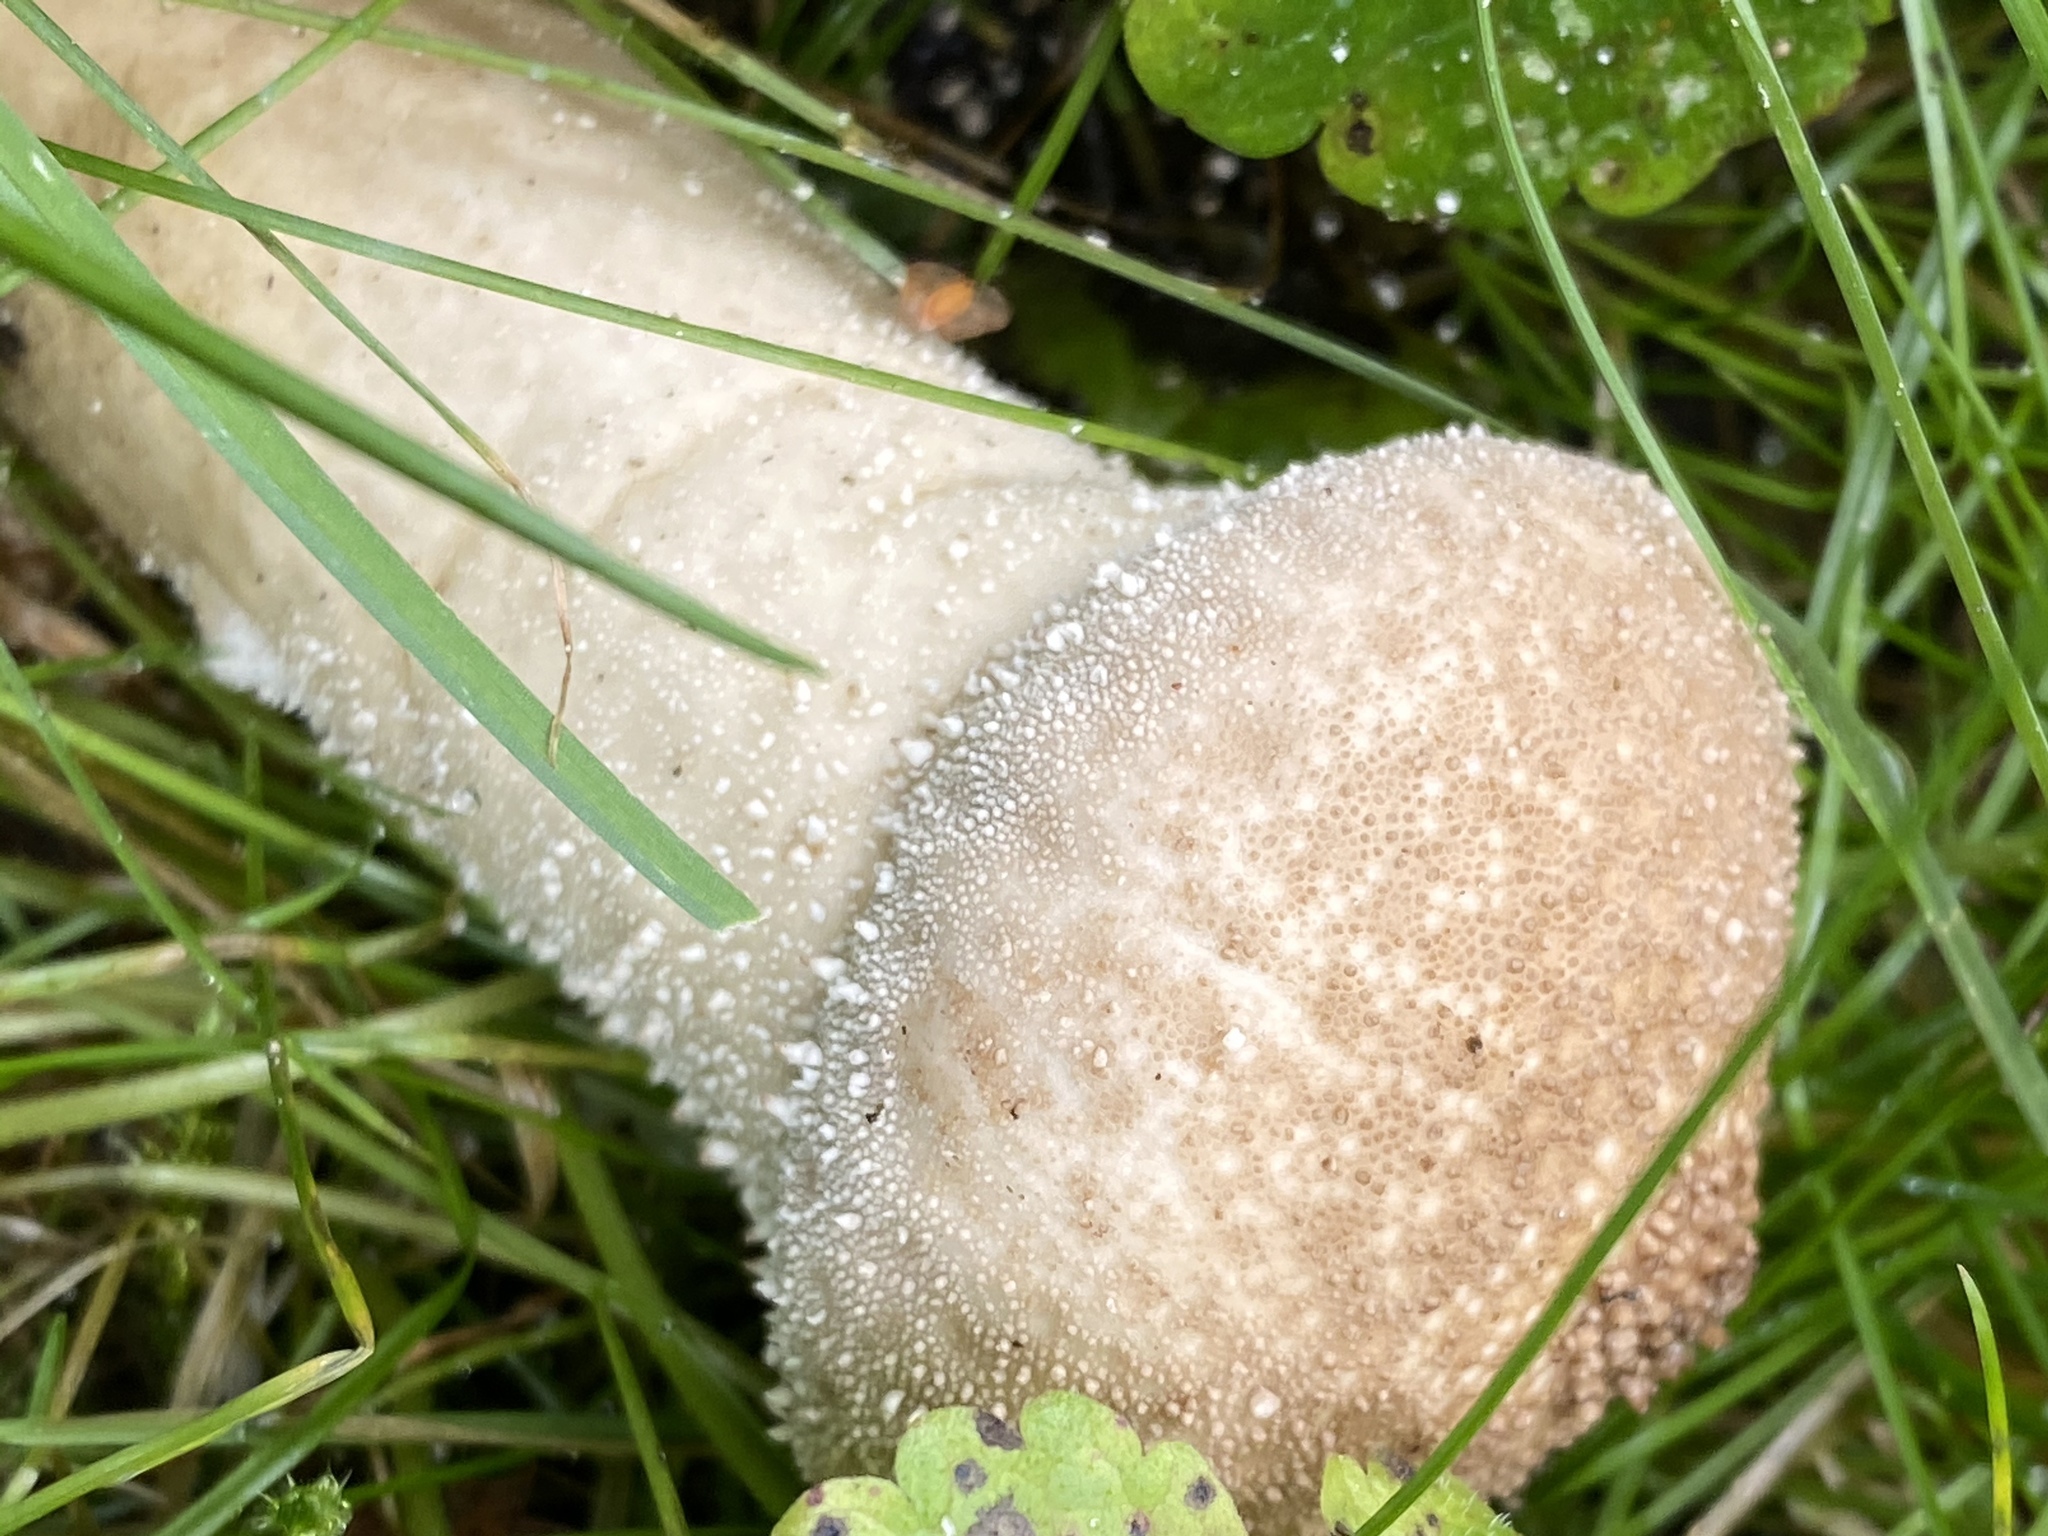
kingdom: Fungi
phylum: Basidiomycota
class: Agaricomycetes
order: Agaricales
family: Lycoperdaceae
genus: Lycoperdon
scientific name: Lycoperdon perlatum
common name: Common puffball
